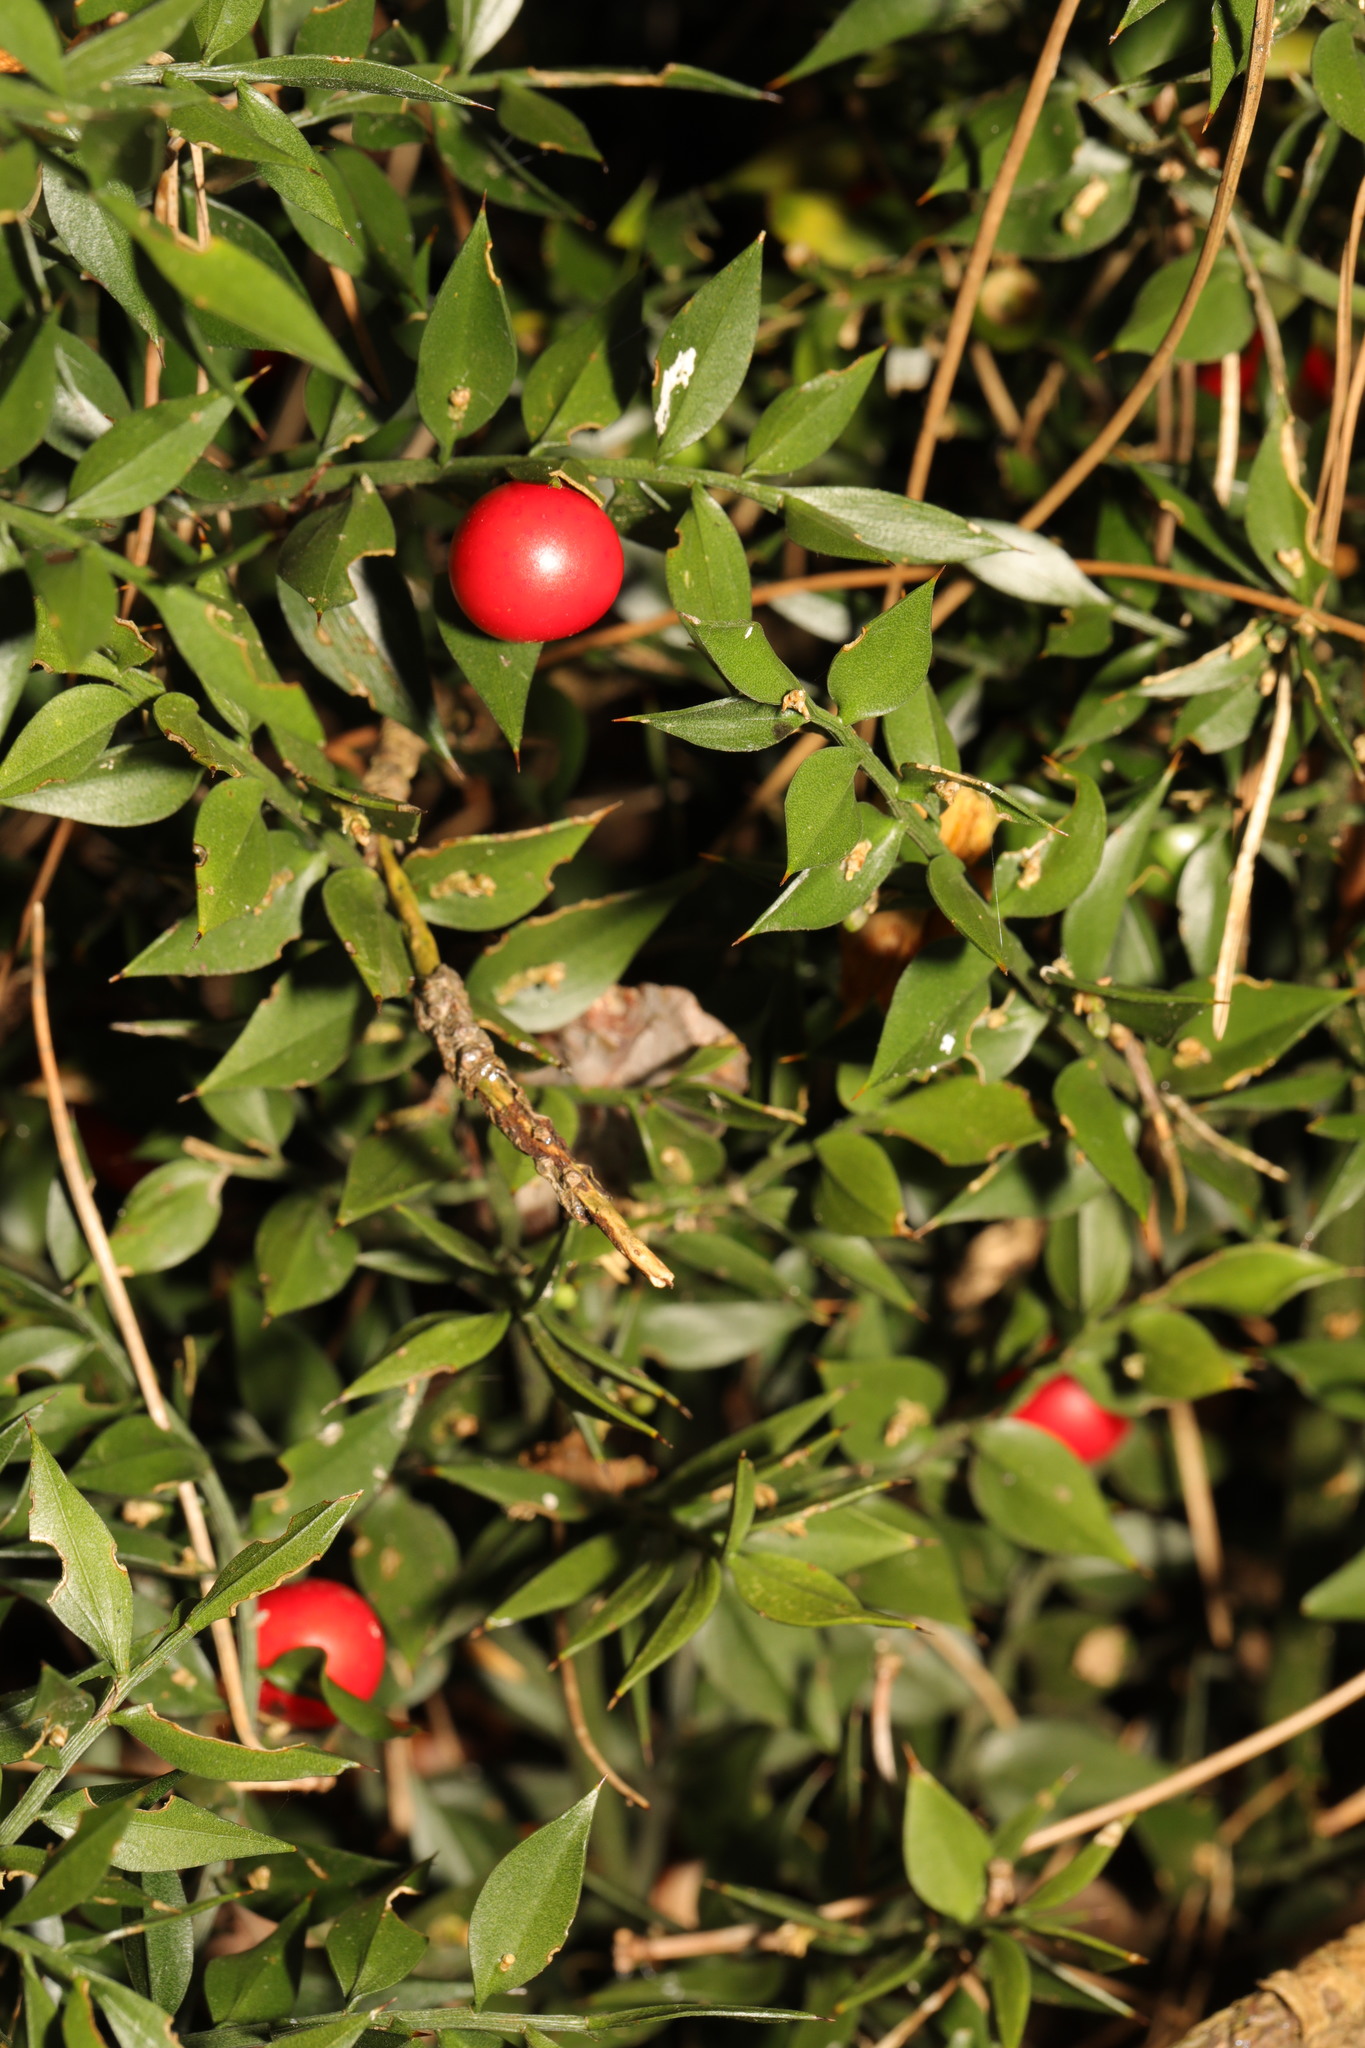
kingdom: Plantae
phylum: Tracheophyta
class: Liliopsida
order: Asparagales
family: Asparagaceae
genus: Ruscus
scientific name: Ruscus aculeatus
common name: Butcher's-broom
